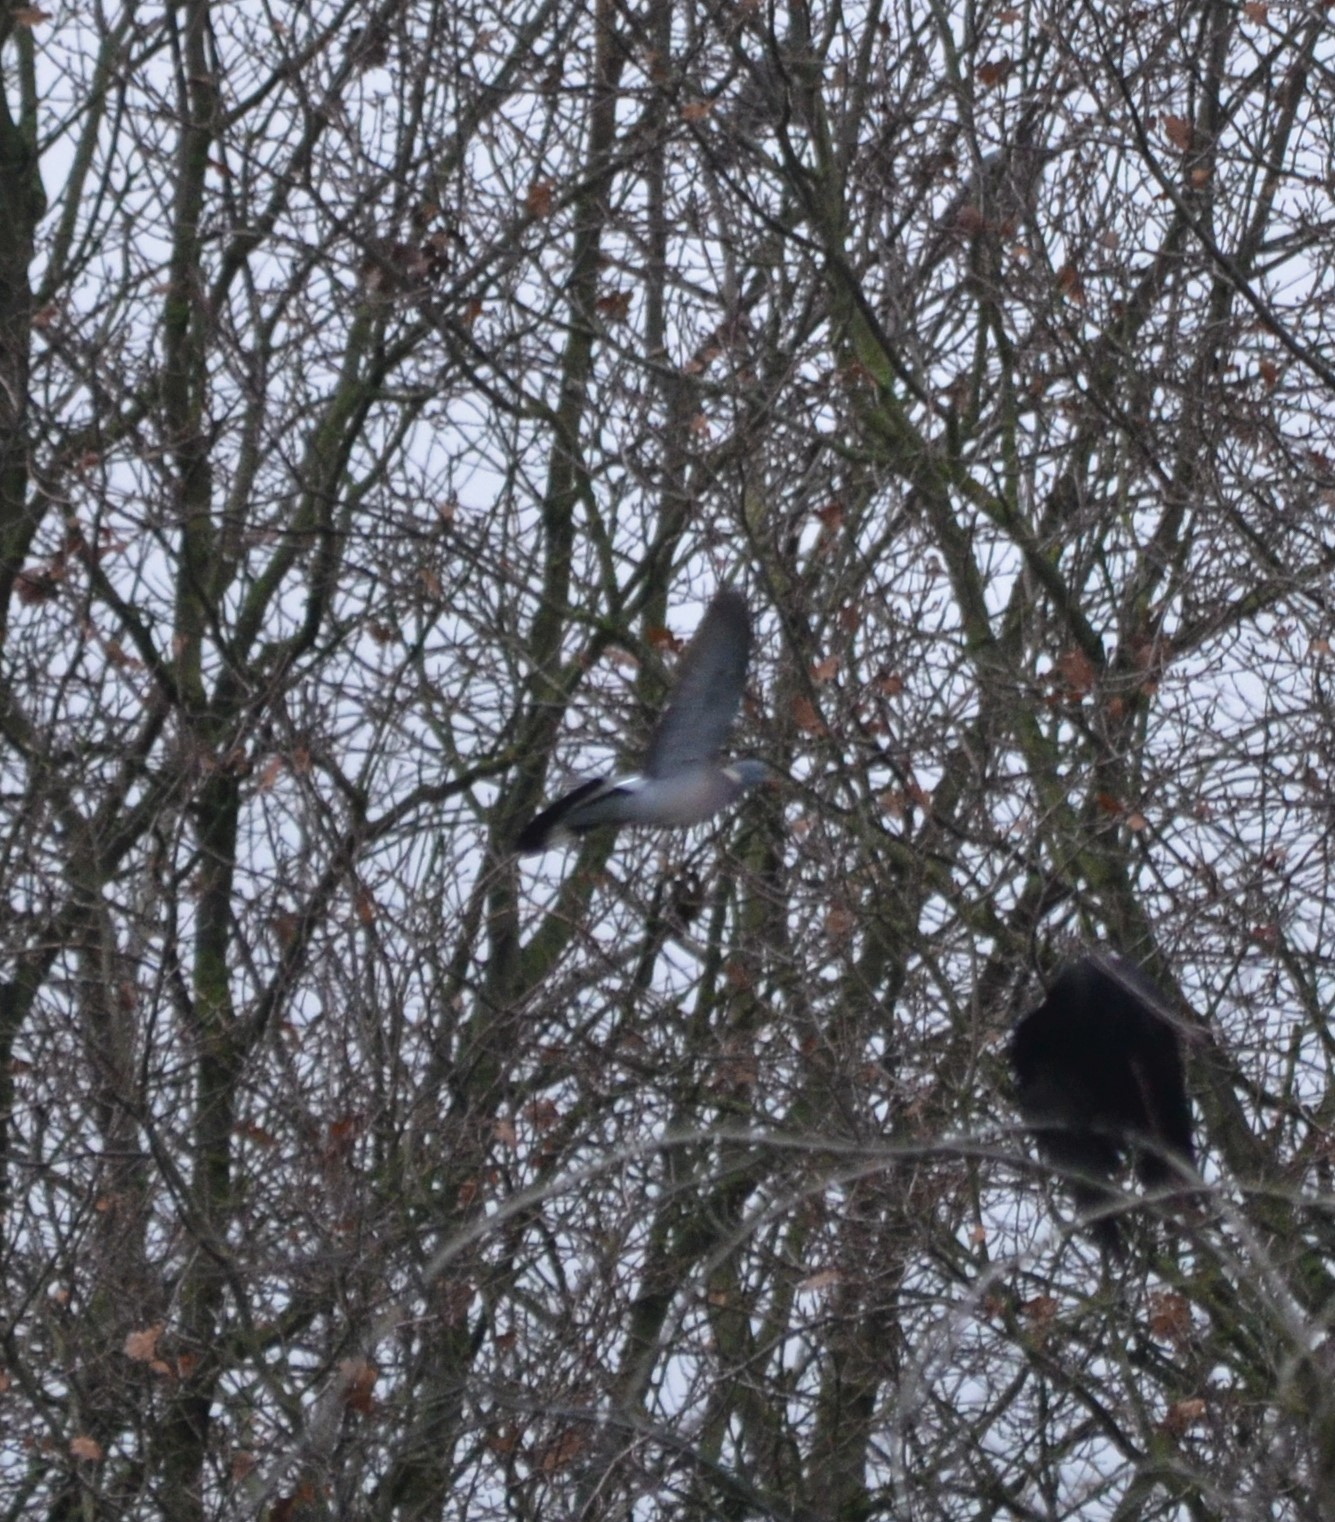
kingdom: Animalia
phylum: Chordata
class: Aves
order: Columbiformes
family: Columbidae
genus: Columba
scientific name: Columba palumbus
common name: Common wood pigeon
